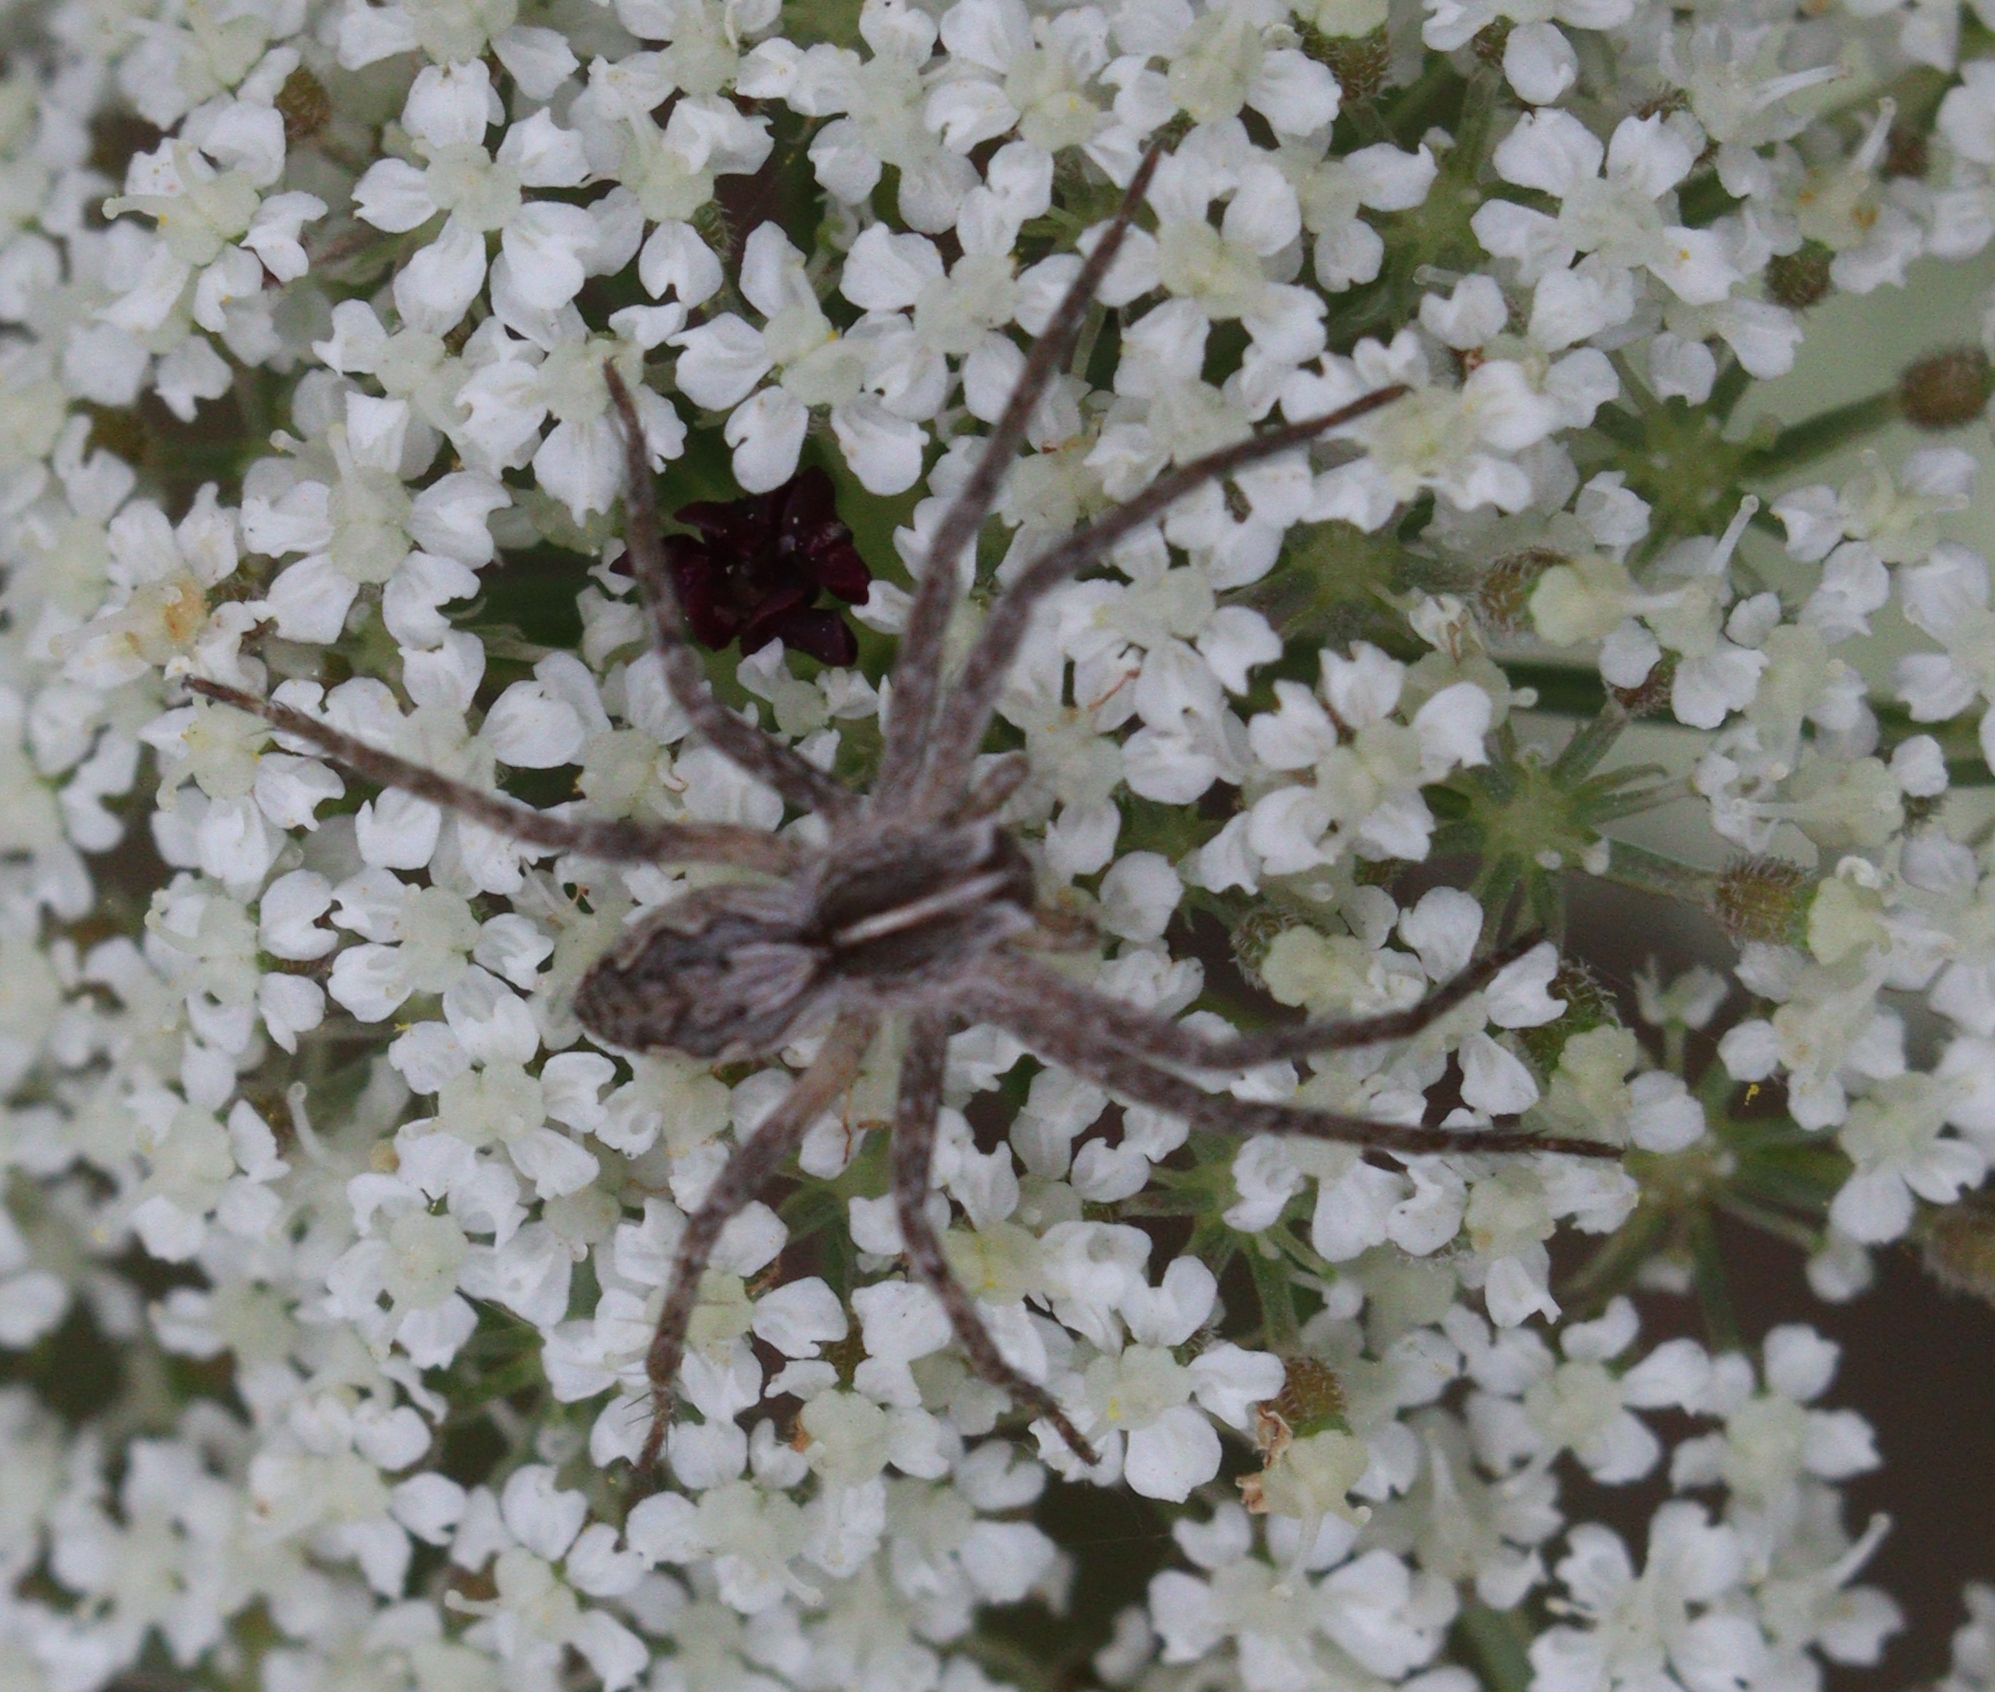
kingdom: Animalia
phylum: Arthropoda
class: Arachnida
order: Araneae
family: Pisauridae
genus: Pisaura
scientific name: Pisaura mirabilis
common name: Tent spider
